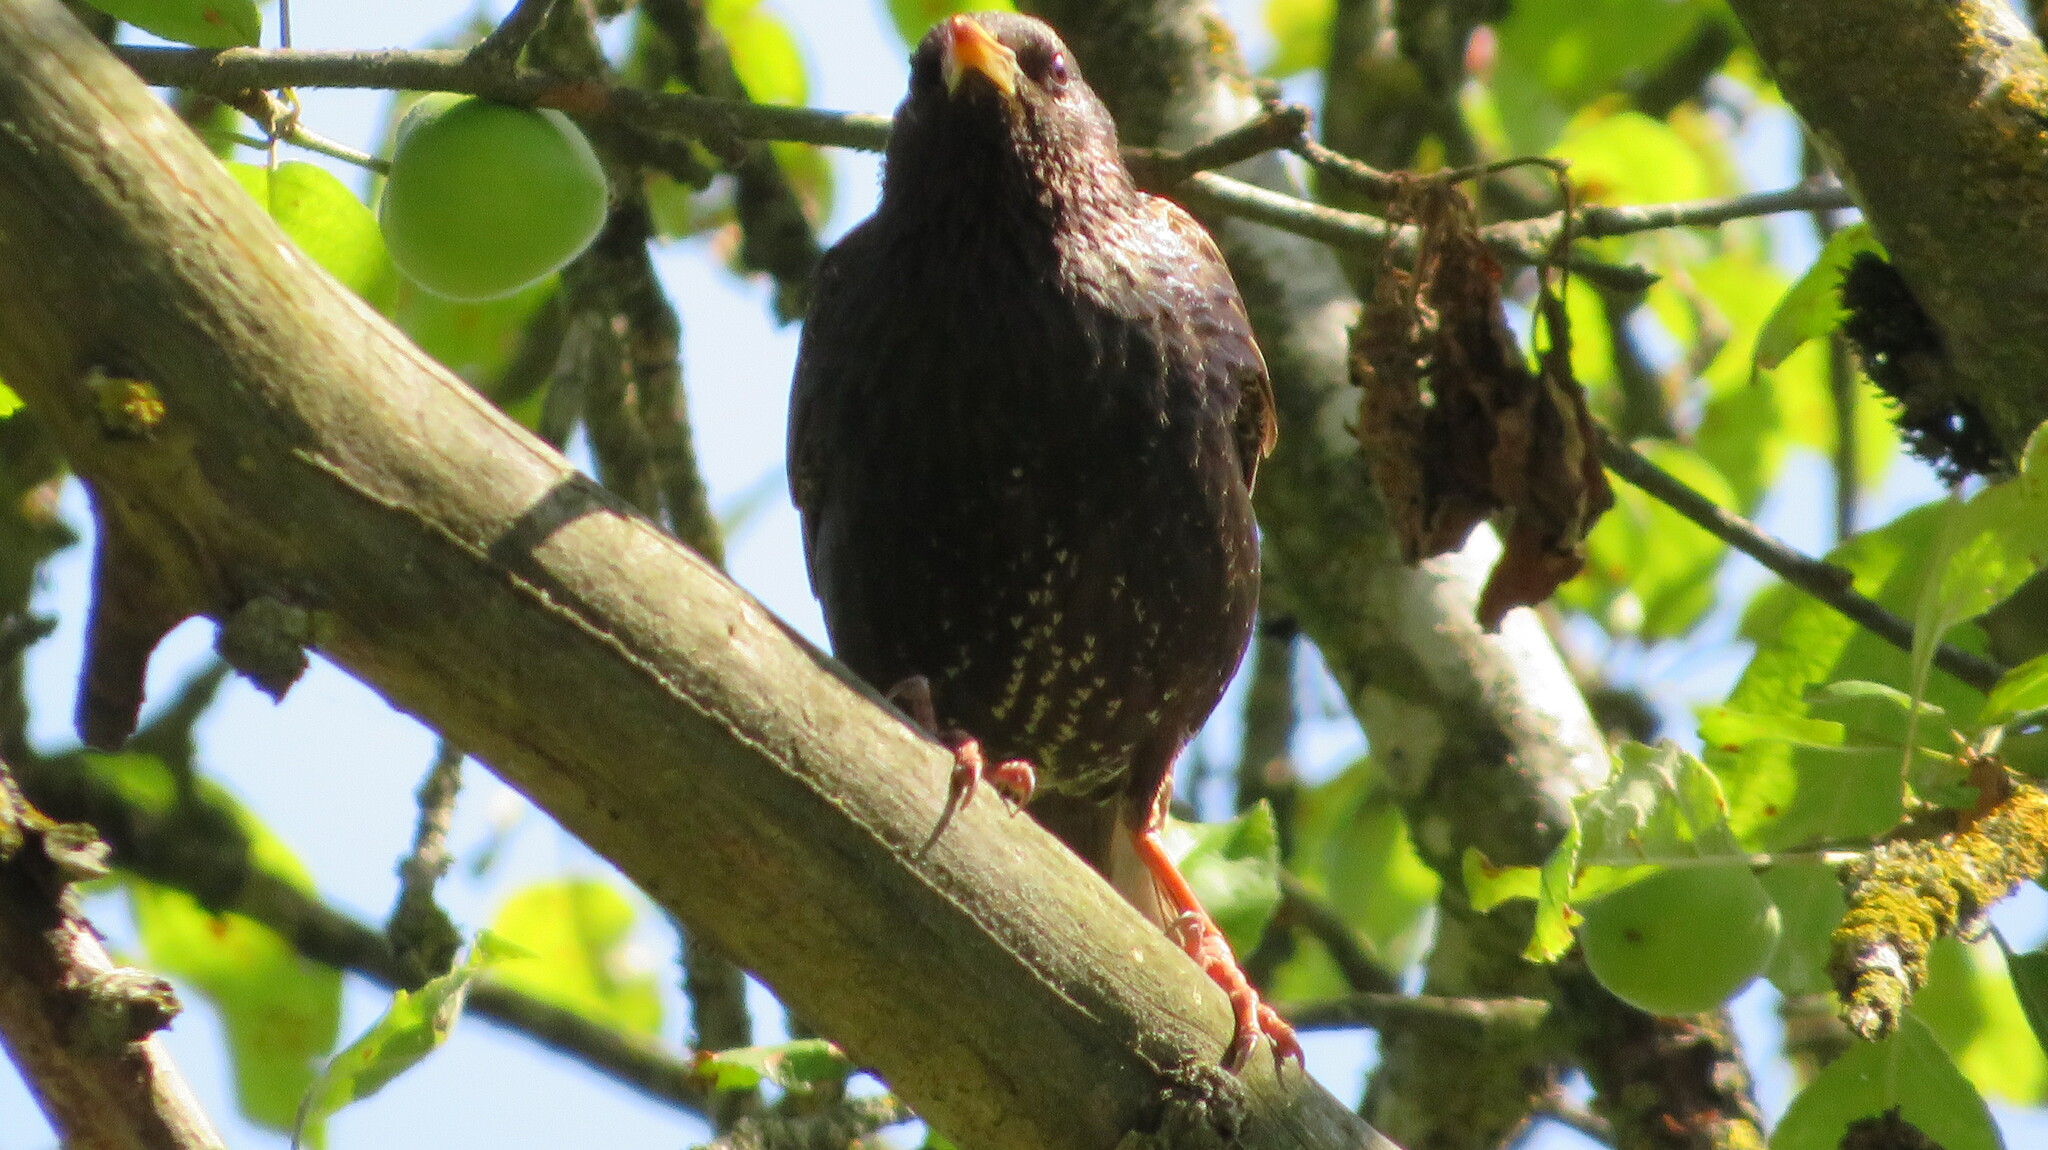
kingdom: Animalia
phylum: Chordata
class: Aves
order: Passeriformes
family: Sturnidae
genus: Sturnus
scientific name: Sturnus vulgaris
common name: Common starling
